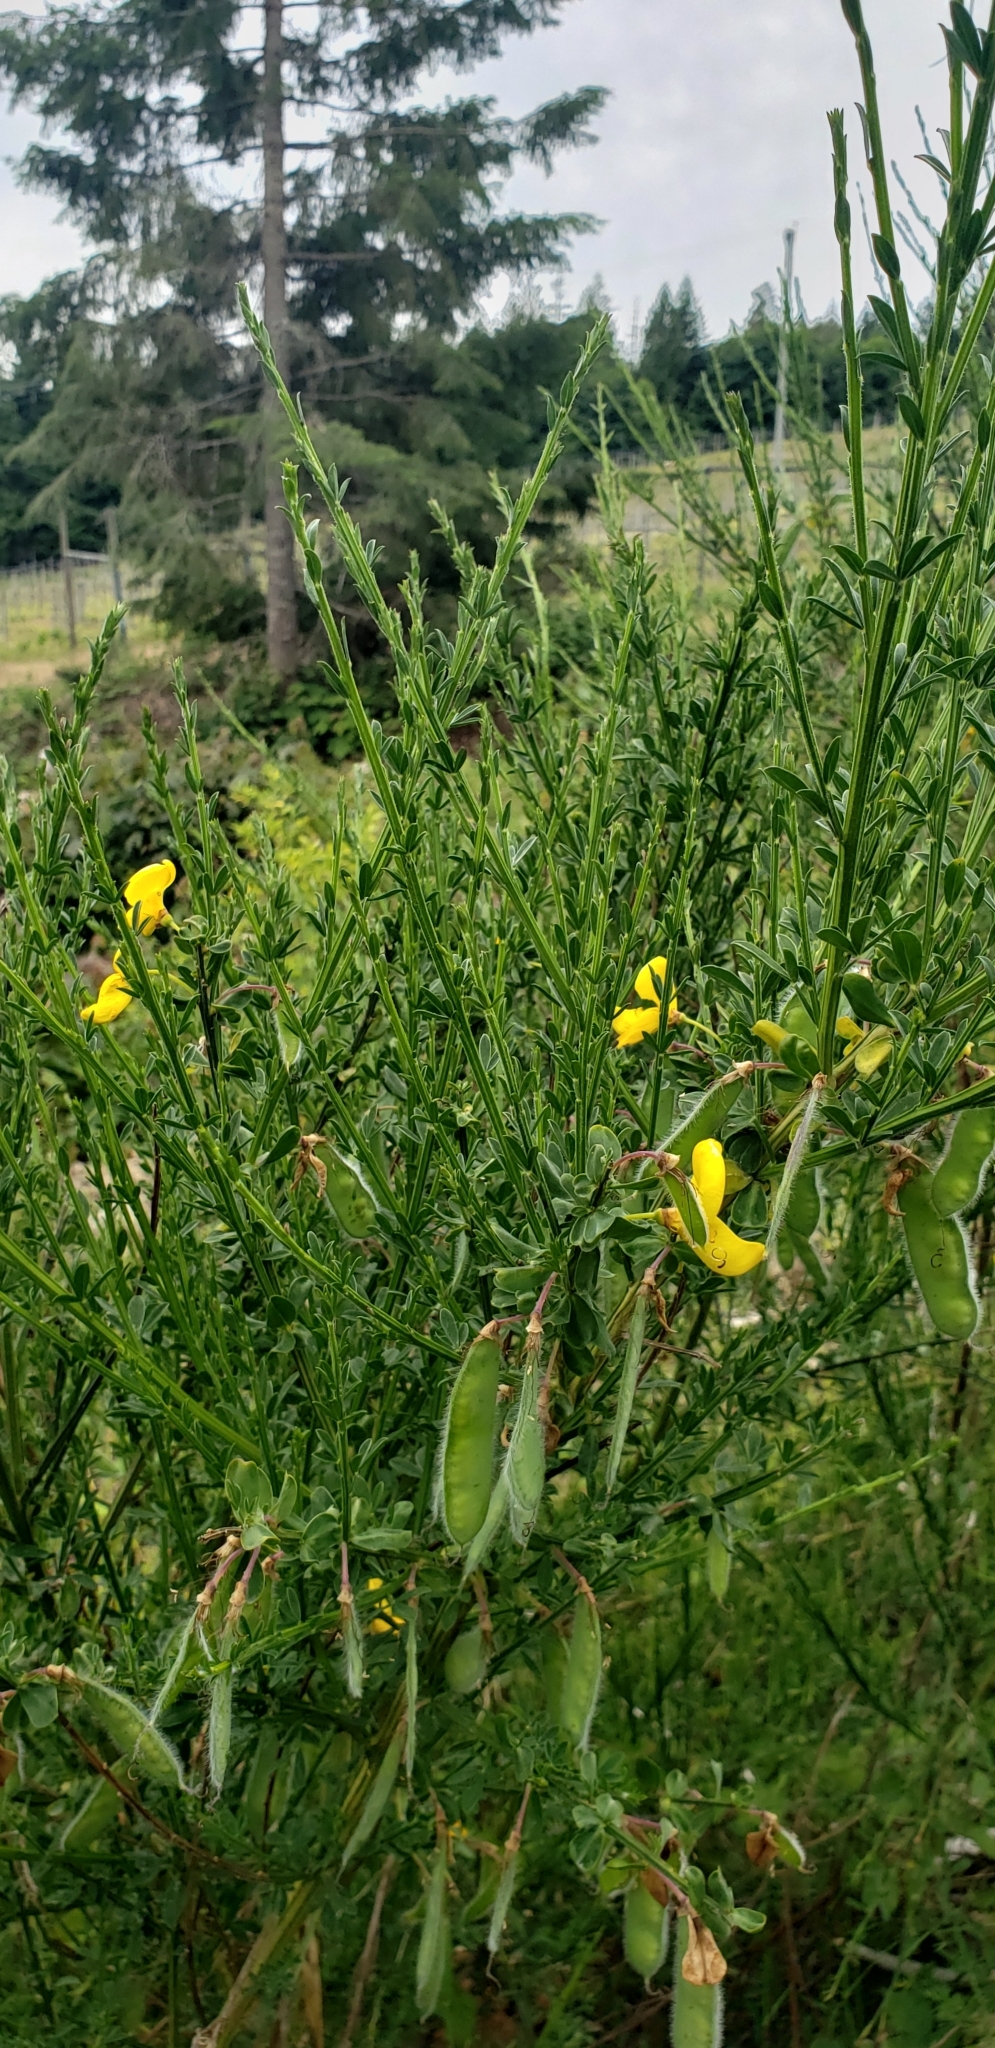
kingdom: Plantae
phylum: Tracheophyta
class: Magnoliopsida
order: Fabales
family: Fabaceae
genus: Cytisus
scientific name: Cytisus scoparius
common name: Scotch broom
